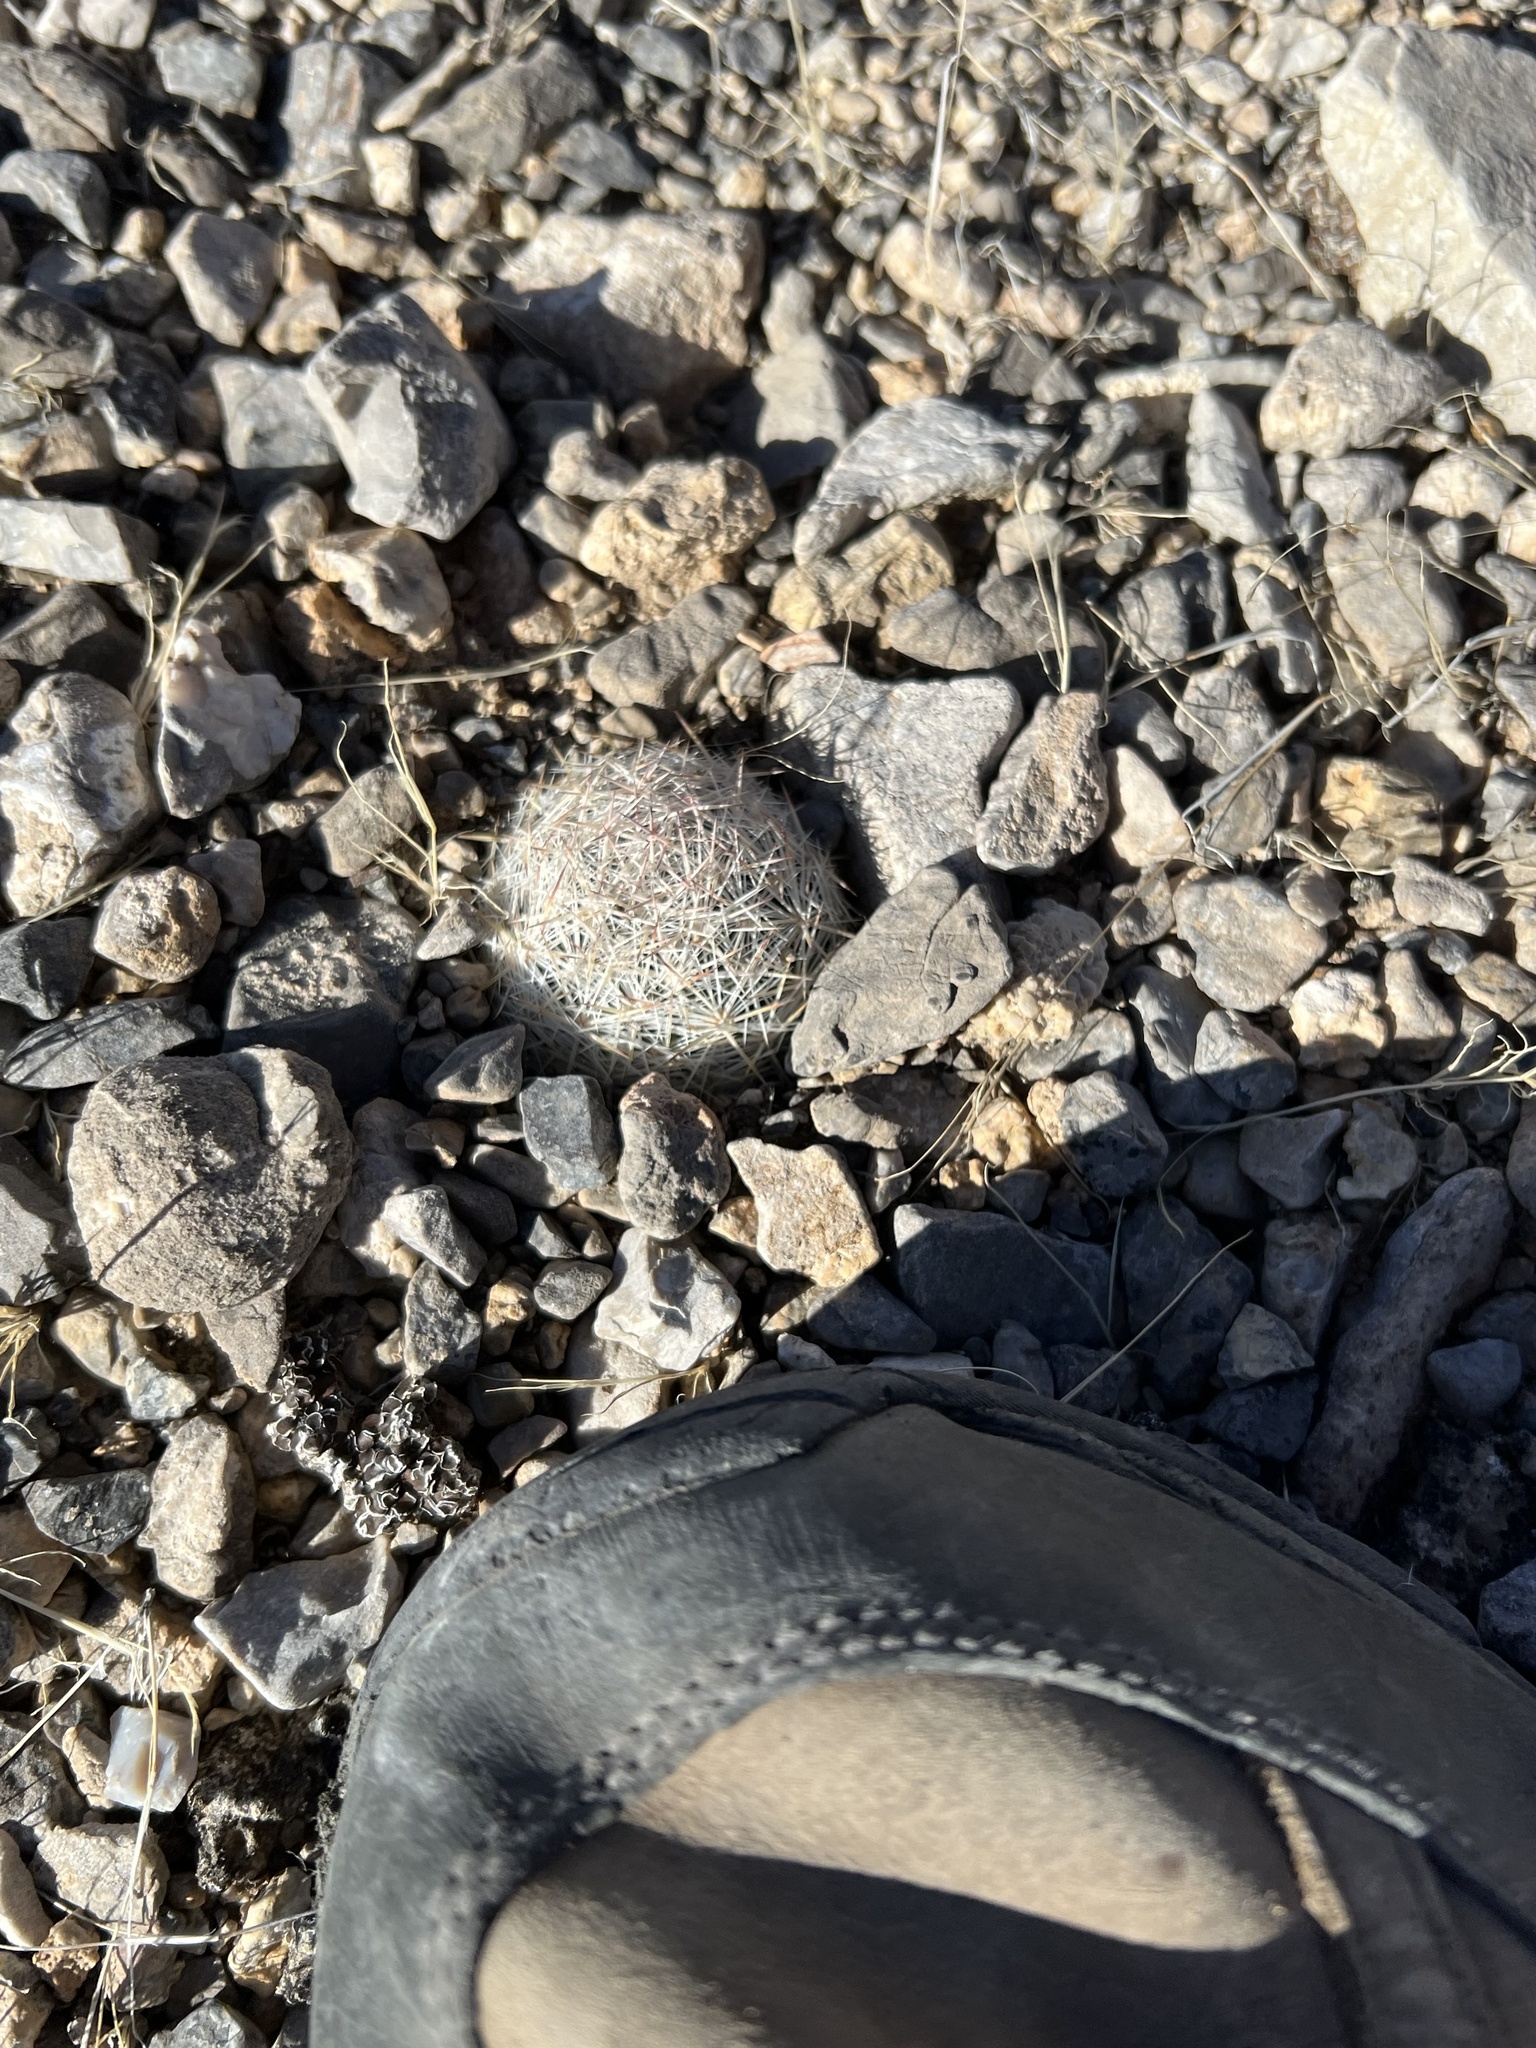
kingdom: Plantae
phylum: Tracheophyta
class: Magnoliopsida
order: Caryophyllales
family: Cactaceae
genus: Pelecyphora
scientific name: Pelecyphora dasyacantha
